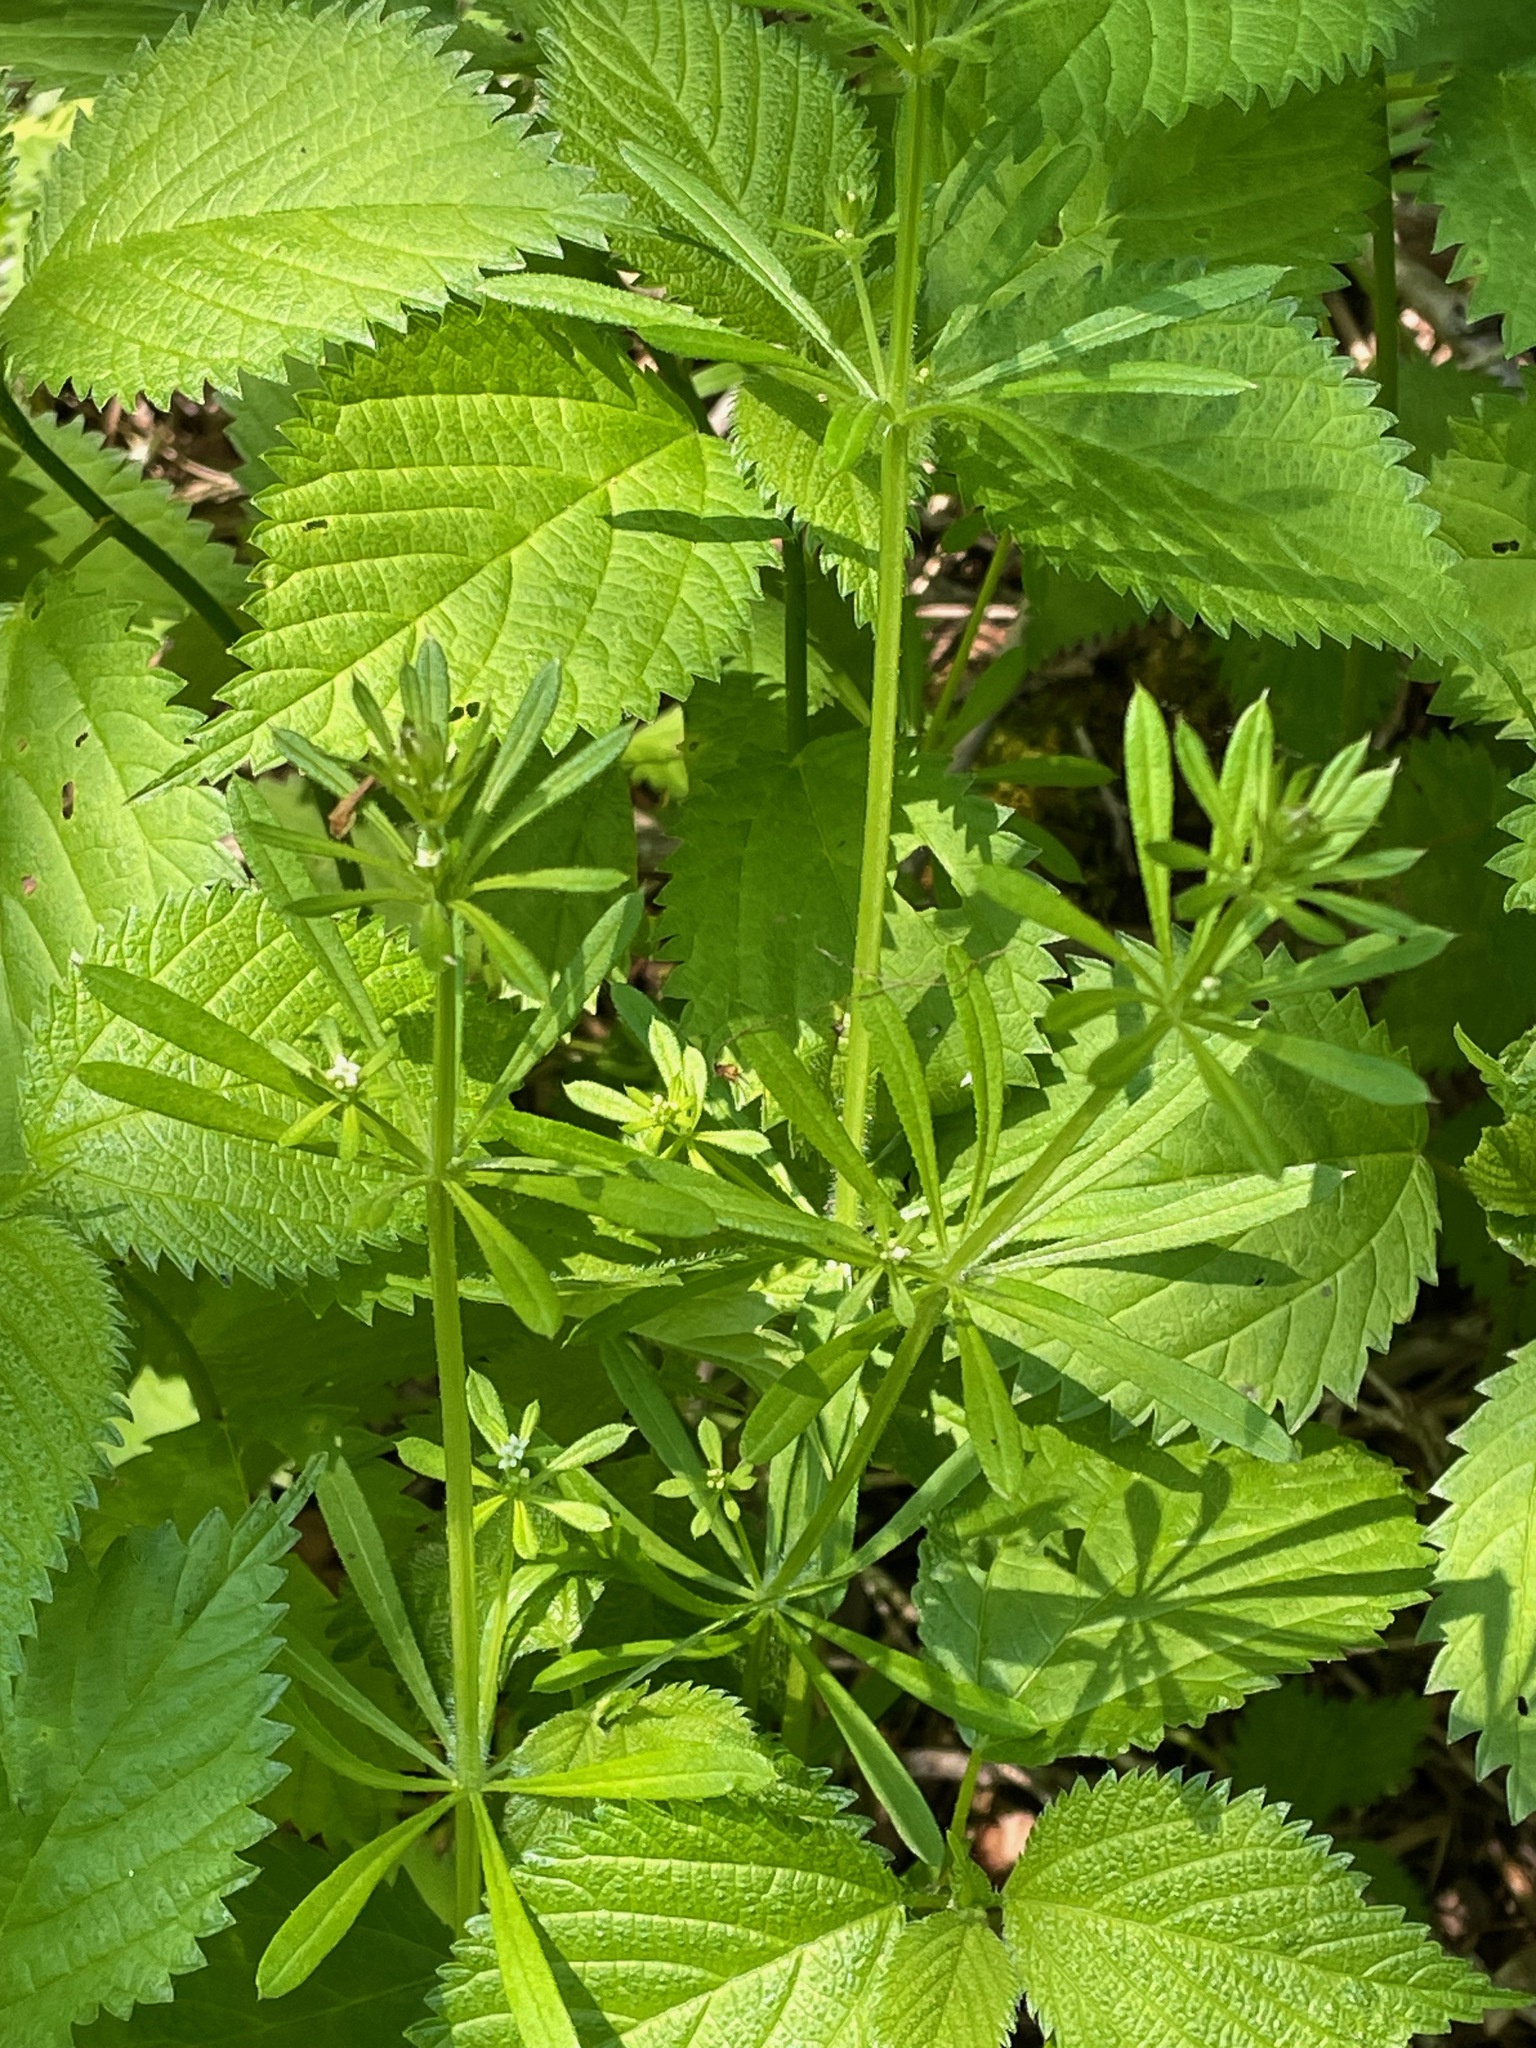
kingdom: Plantae
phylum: Tracheophyta
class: Magnoliopsida
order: Gentianales
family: Rubiaceae
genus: Galium
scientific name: Galium aparine
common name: Cleavers
